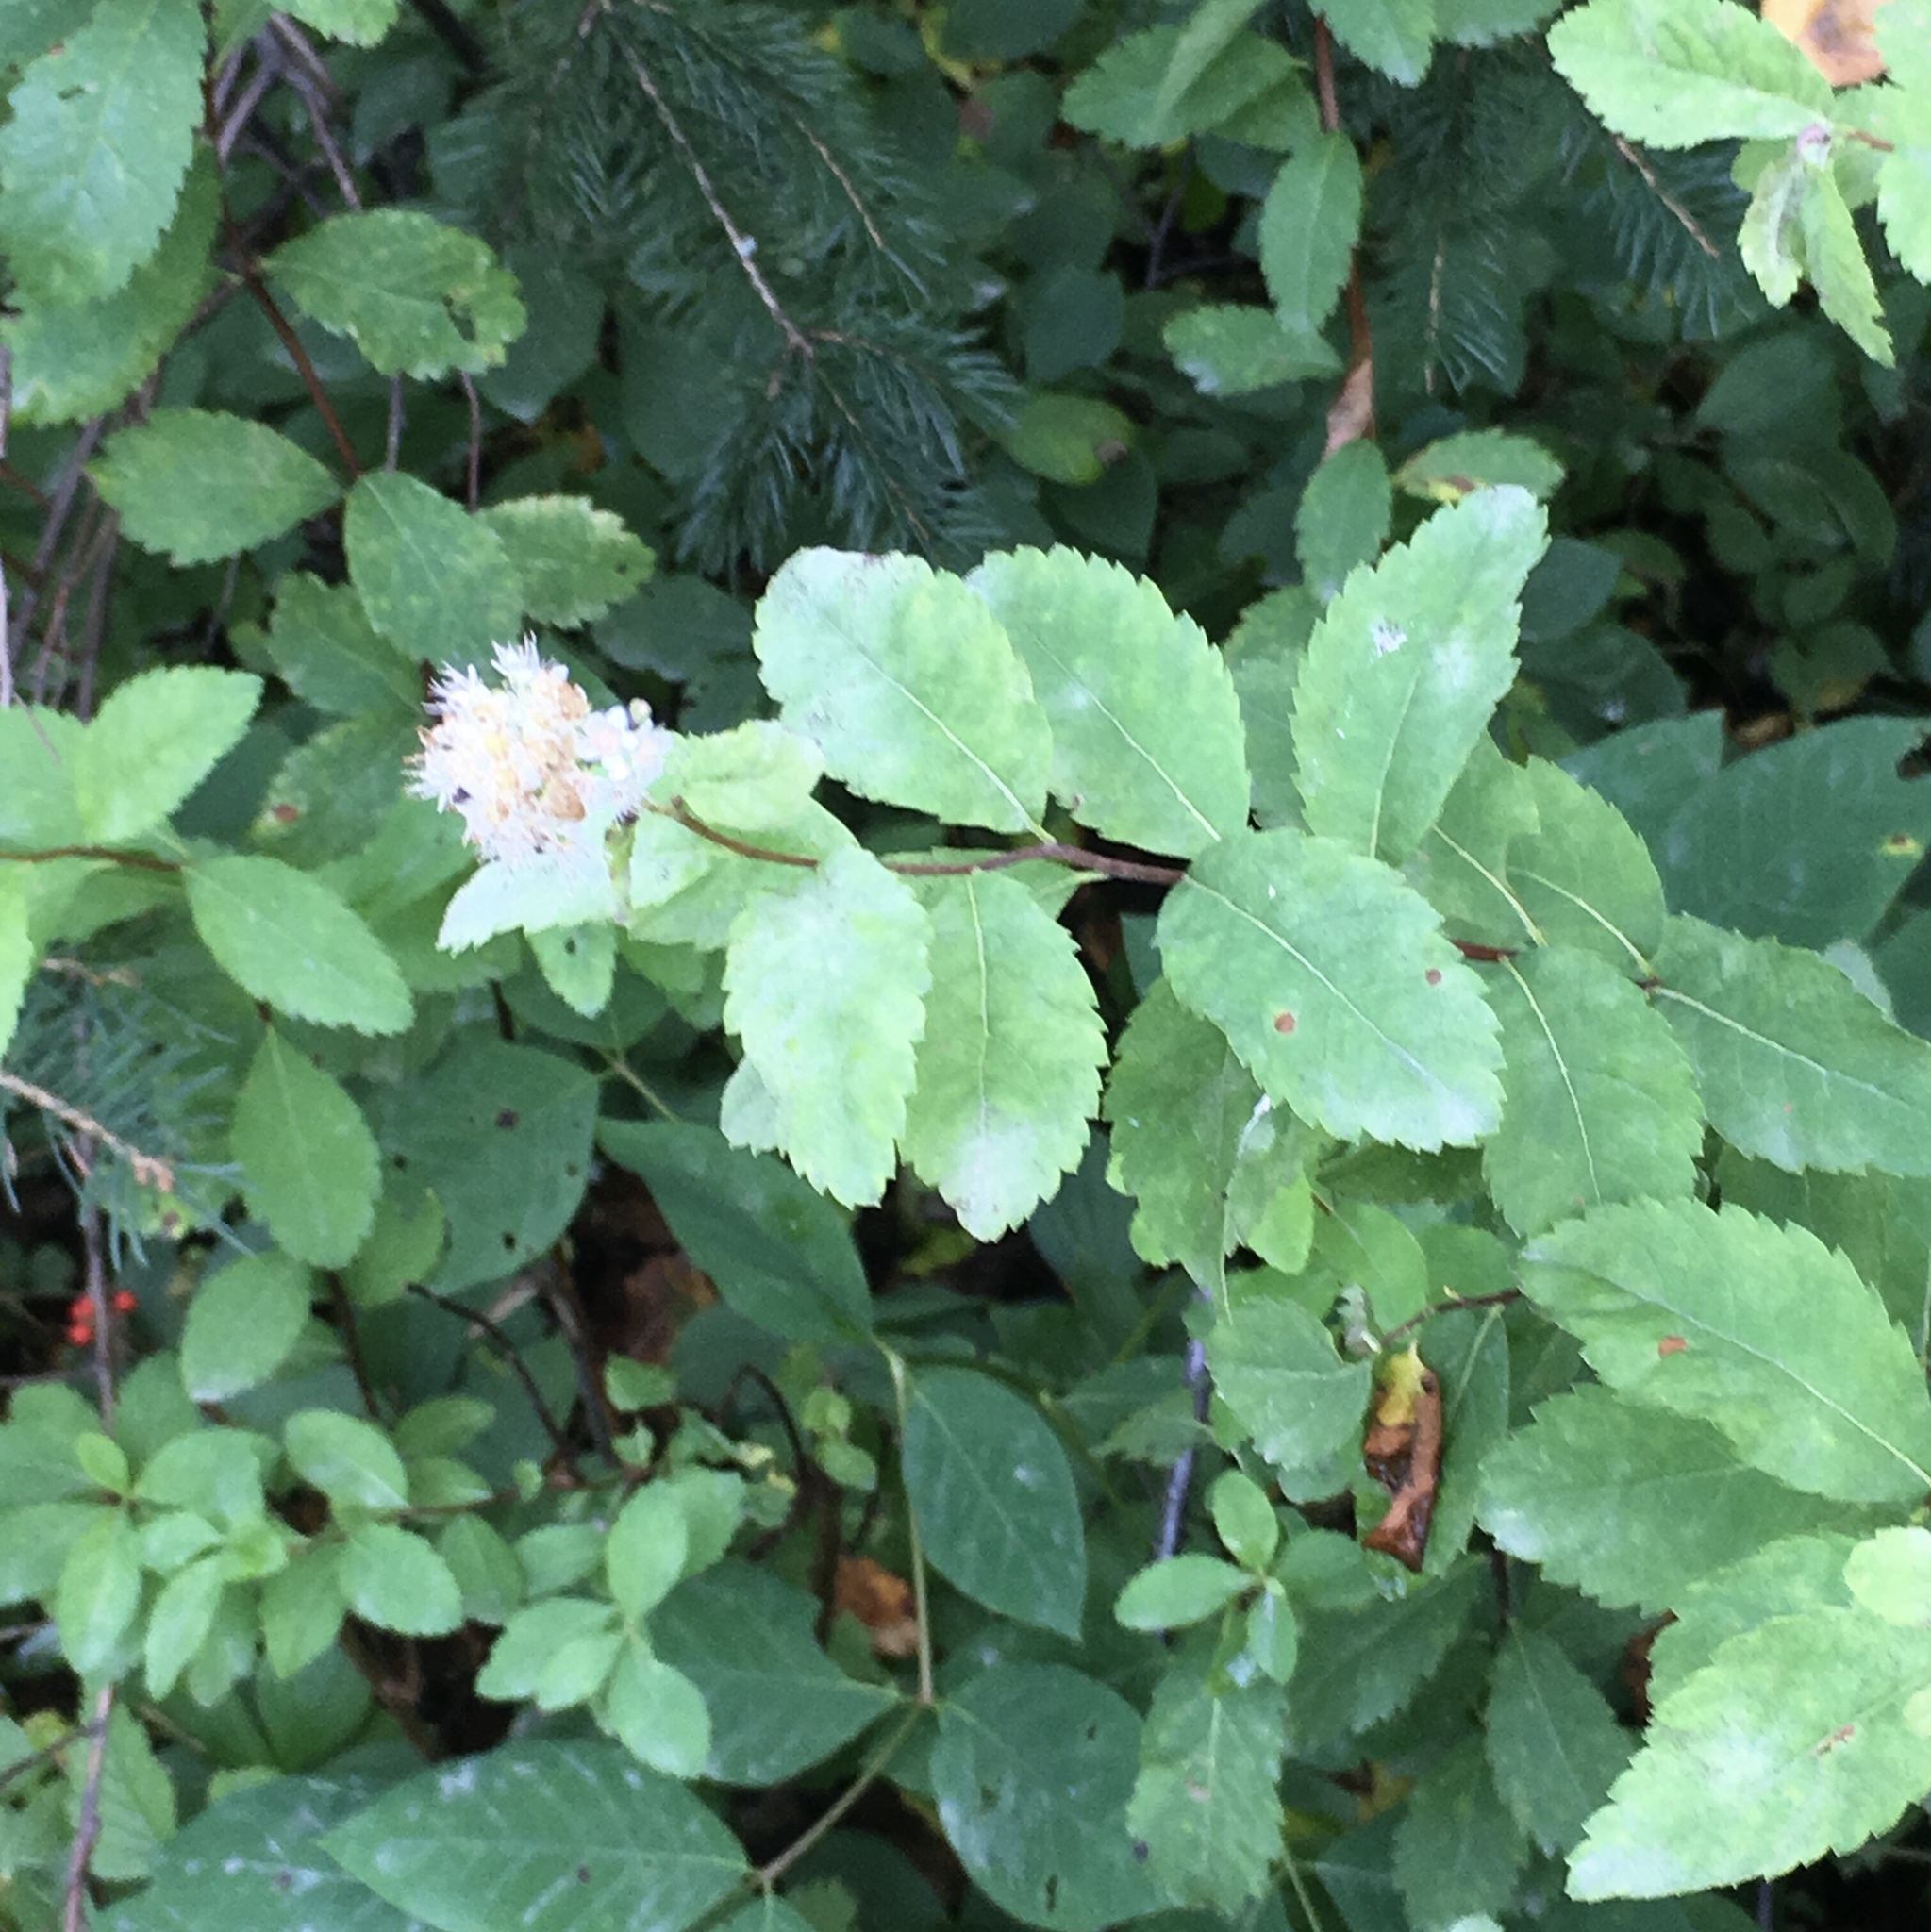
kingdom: Plantae
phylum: Tracheophyta
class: Magnoliopsida
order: Rosales
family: Rosaceae
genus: Spiraea
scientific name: Spiraea alba
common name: Pale bridewort
